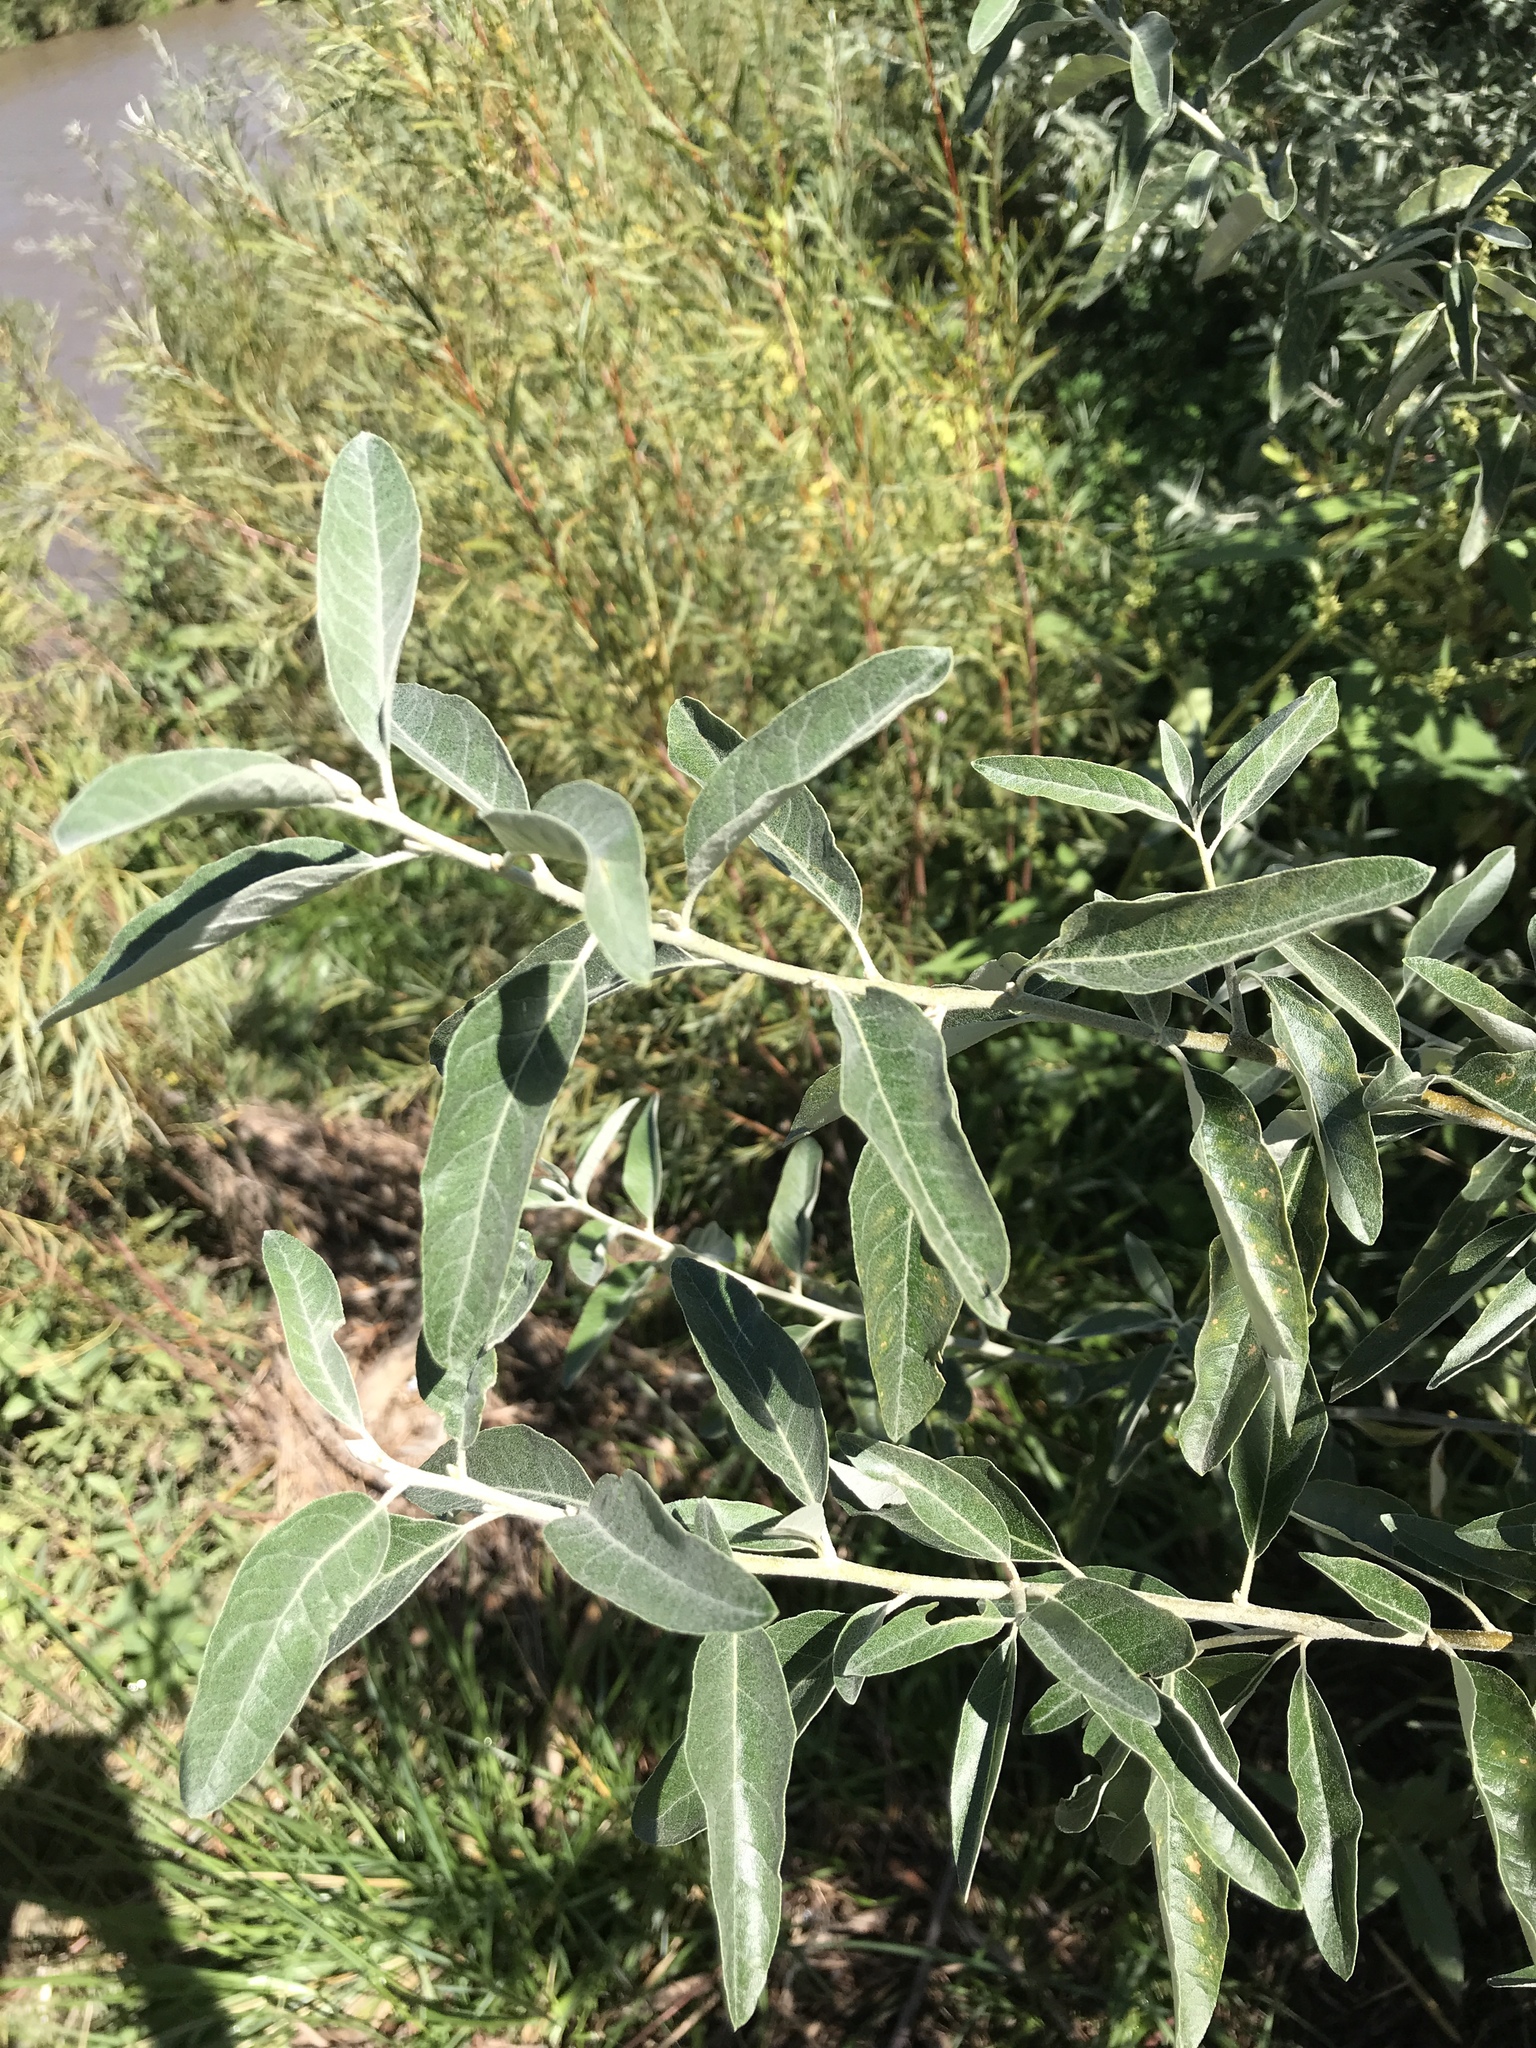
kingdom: Plantae
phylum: Tracheophyta
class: Magnoliopsida
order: Rosales
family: Elaeagnaceae
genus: Elaeagnus
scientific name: Elaeagnus angustifolia
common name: Russian olive
